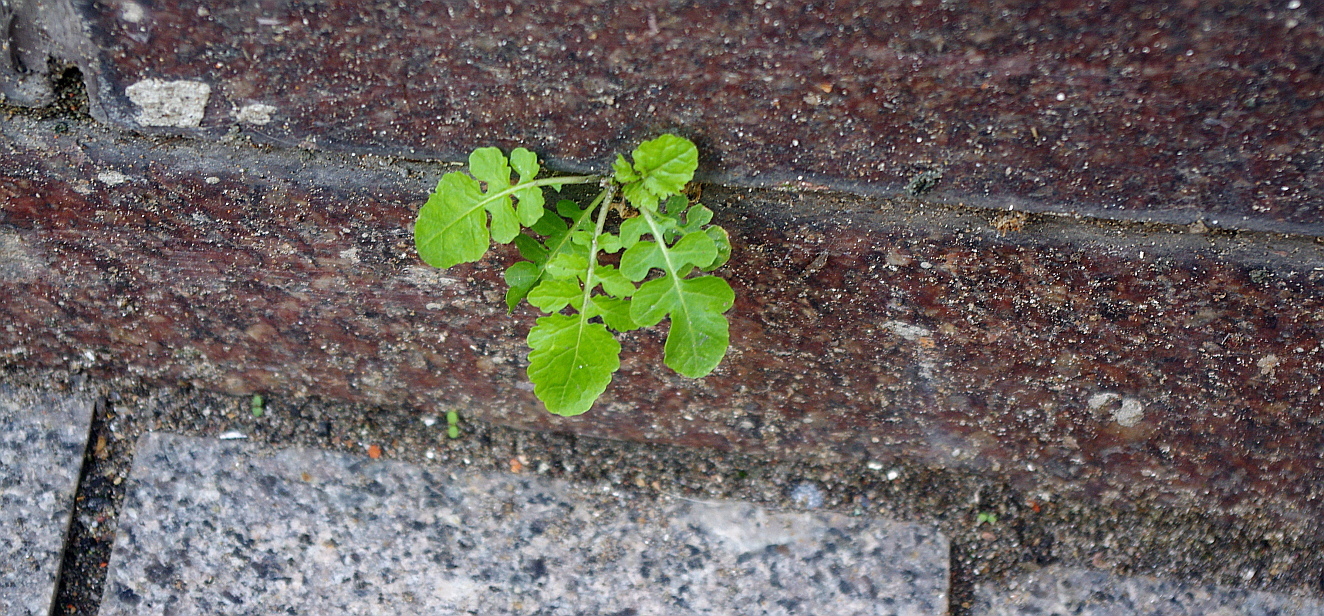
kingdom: Plantae
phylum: Tracheophyta
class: Magnoliopsida
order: Brassicales
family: Brassicaceae
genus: Rorippa
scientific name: Rorippa palustris
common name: Marsh yellow-cress
